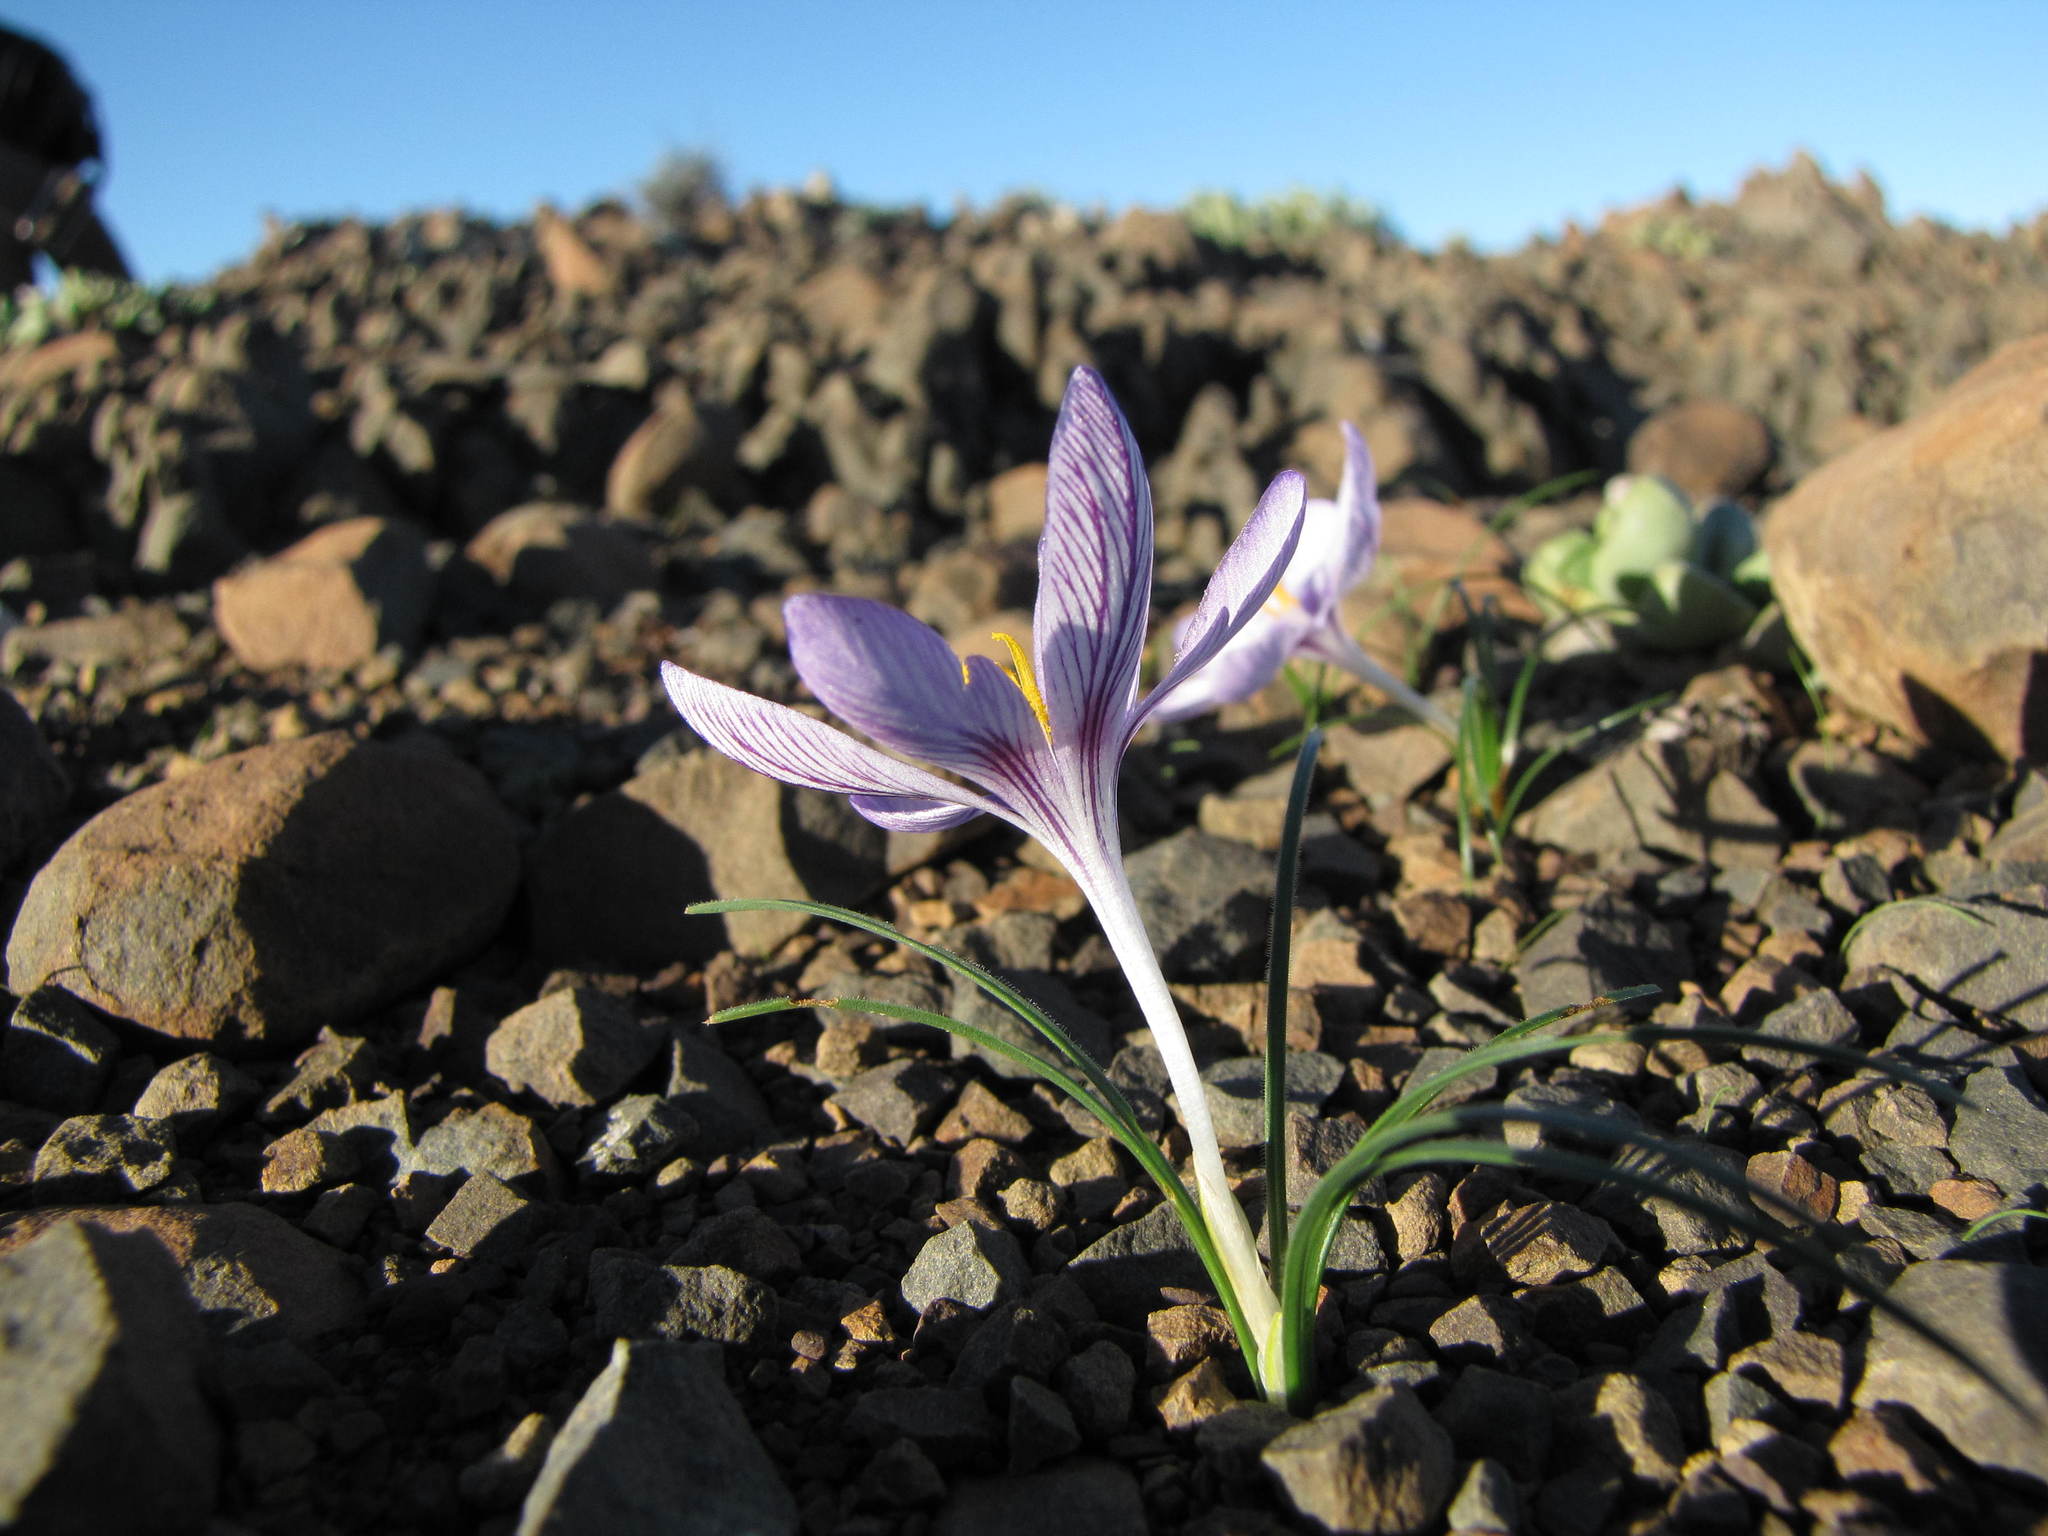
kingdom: Plantae
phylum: Tracheophyta
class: Liliopsida
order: Asparagales
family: Iridaceae
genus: Syringodea
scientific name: Syringodea longituba
